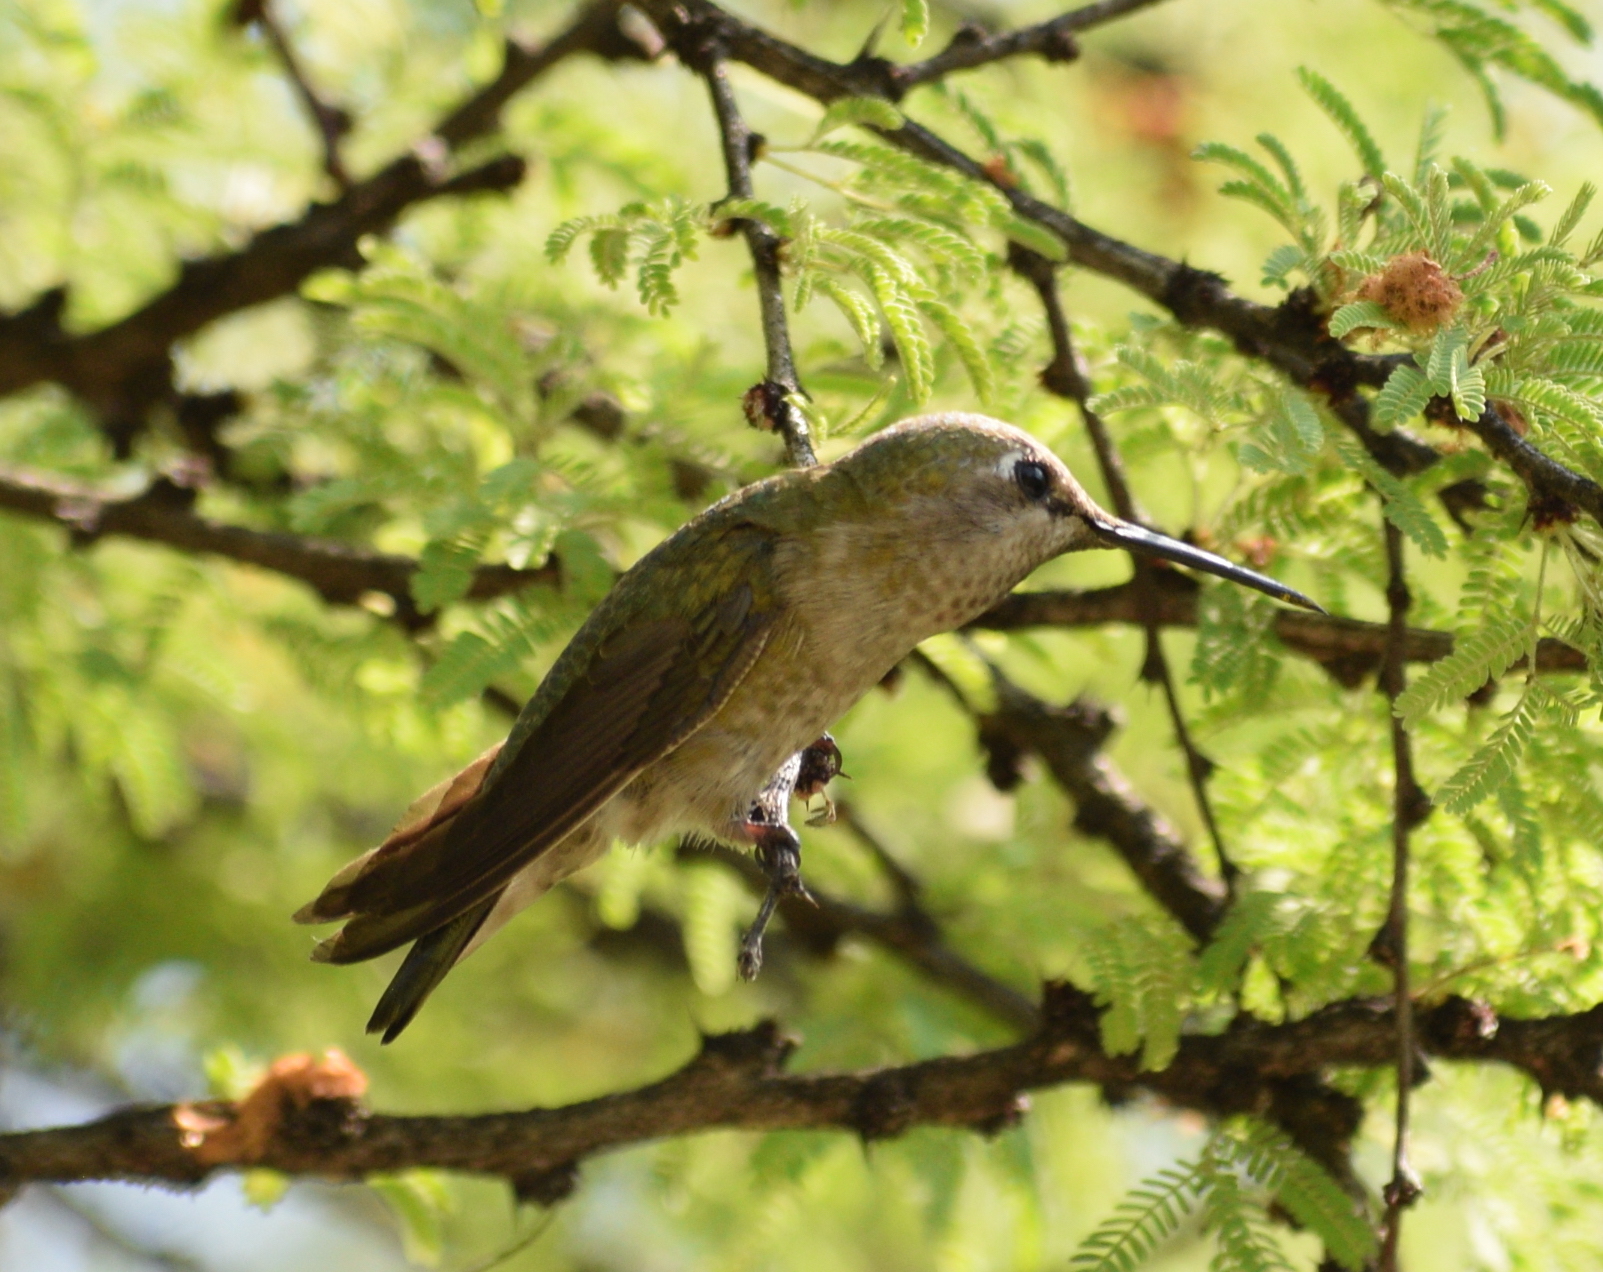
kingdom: Animalia
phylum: Chordata
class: Aves
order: Apodiformes
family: Trochilidae
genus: Calypte
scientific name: Calypte anna
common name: Anna's hummingbird
